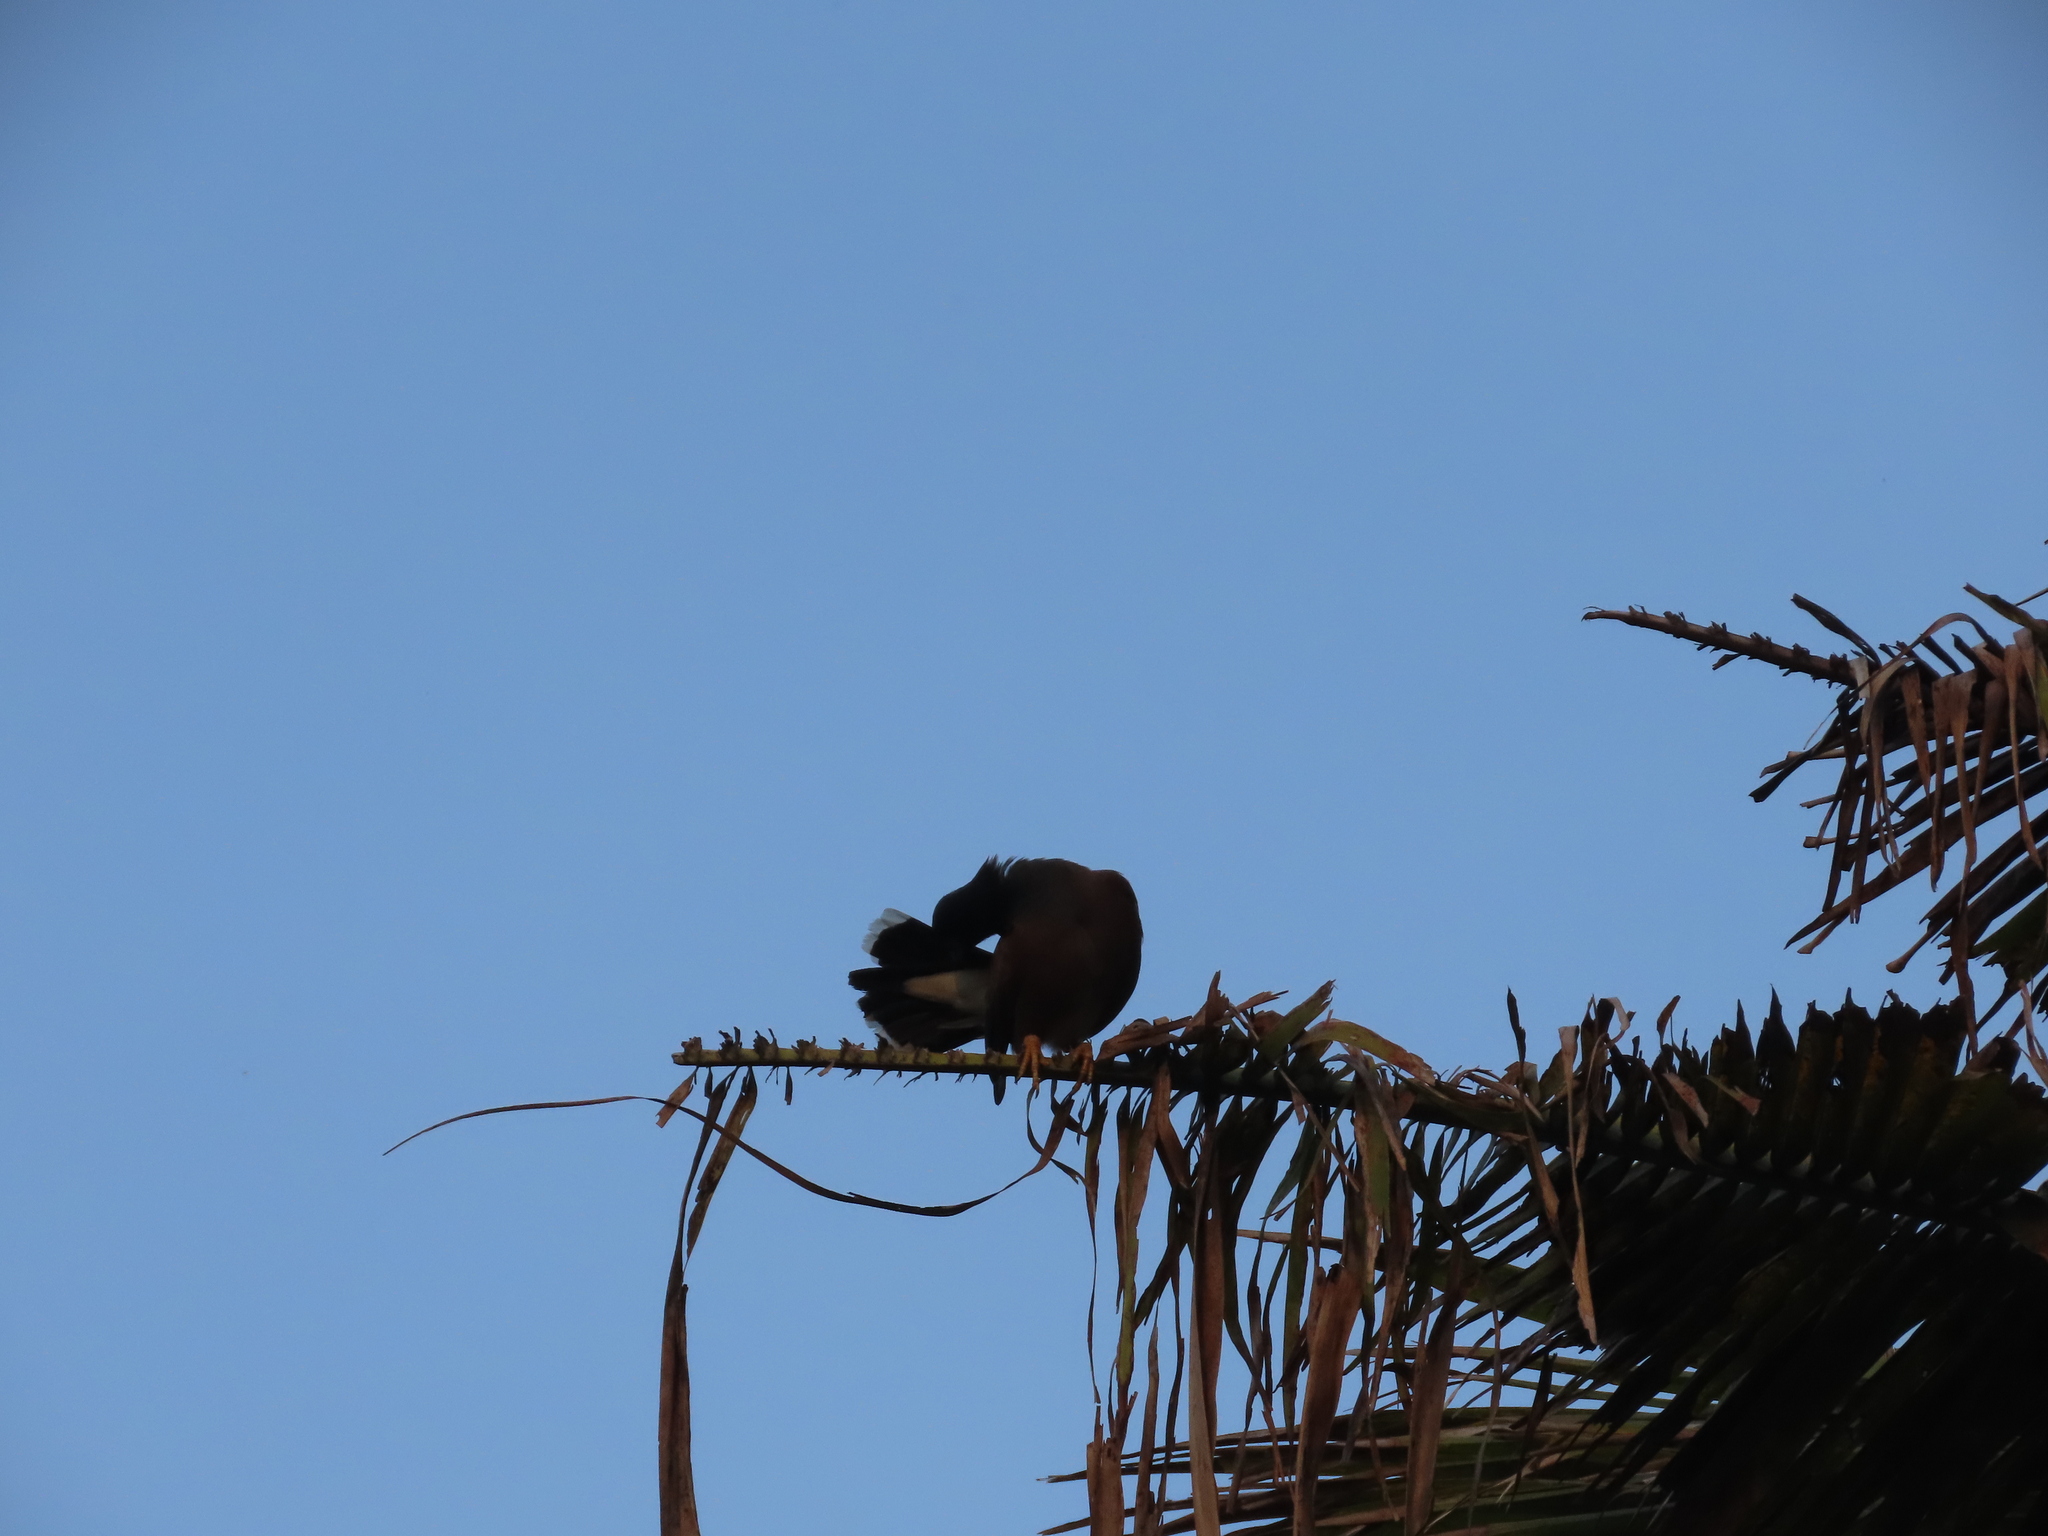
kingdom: Animalia
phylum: Chordata
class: Aves
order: Passeriformes
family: Sturnidae
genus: Acridotheres
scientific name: Acridotheres tristis
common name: Common myna
